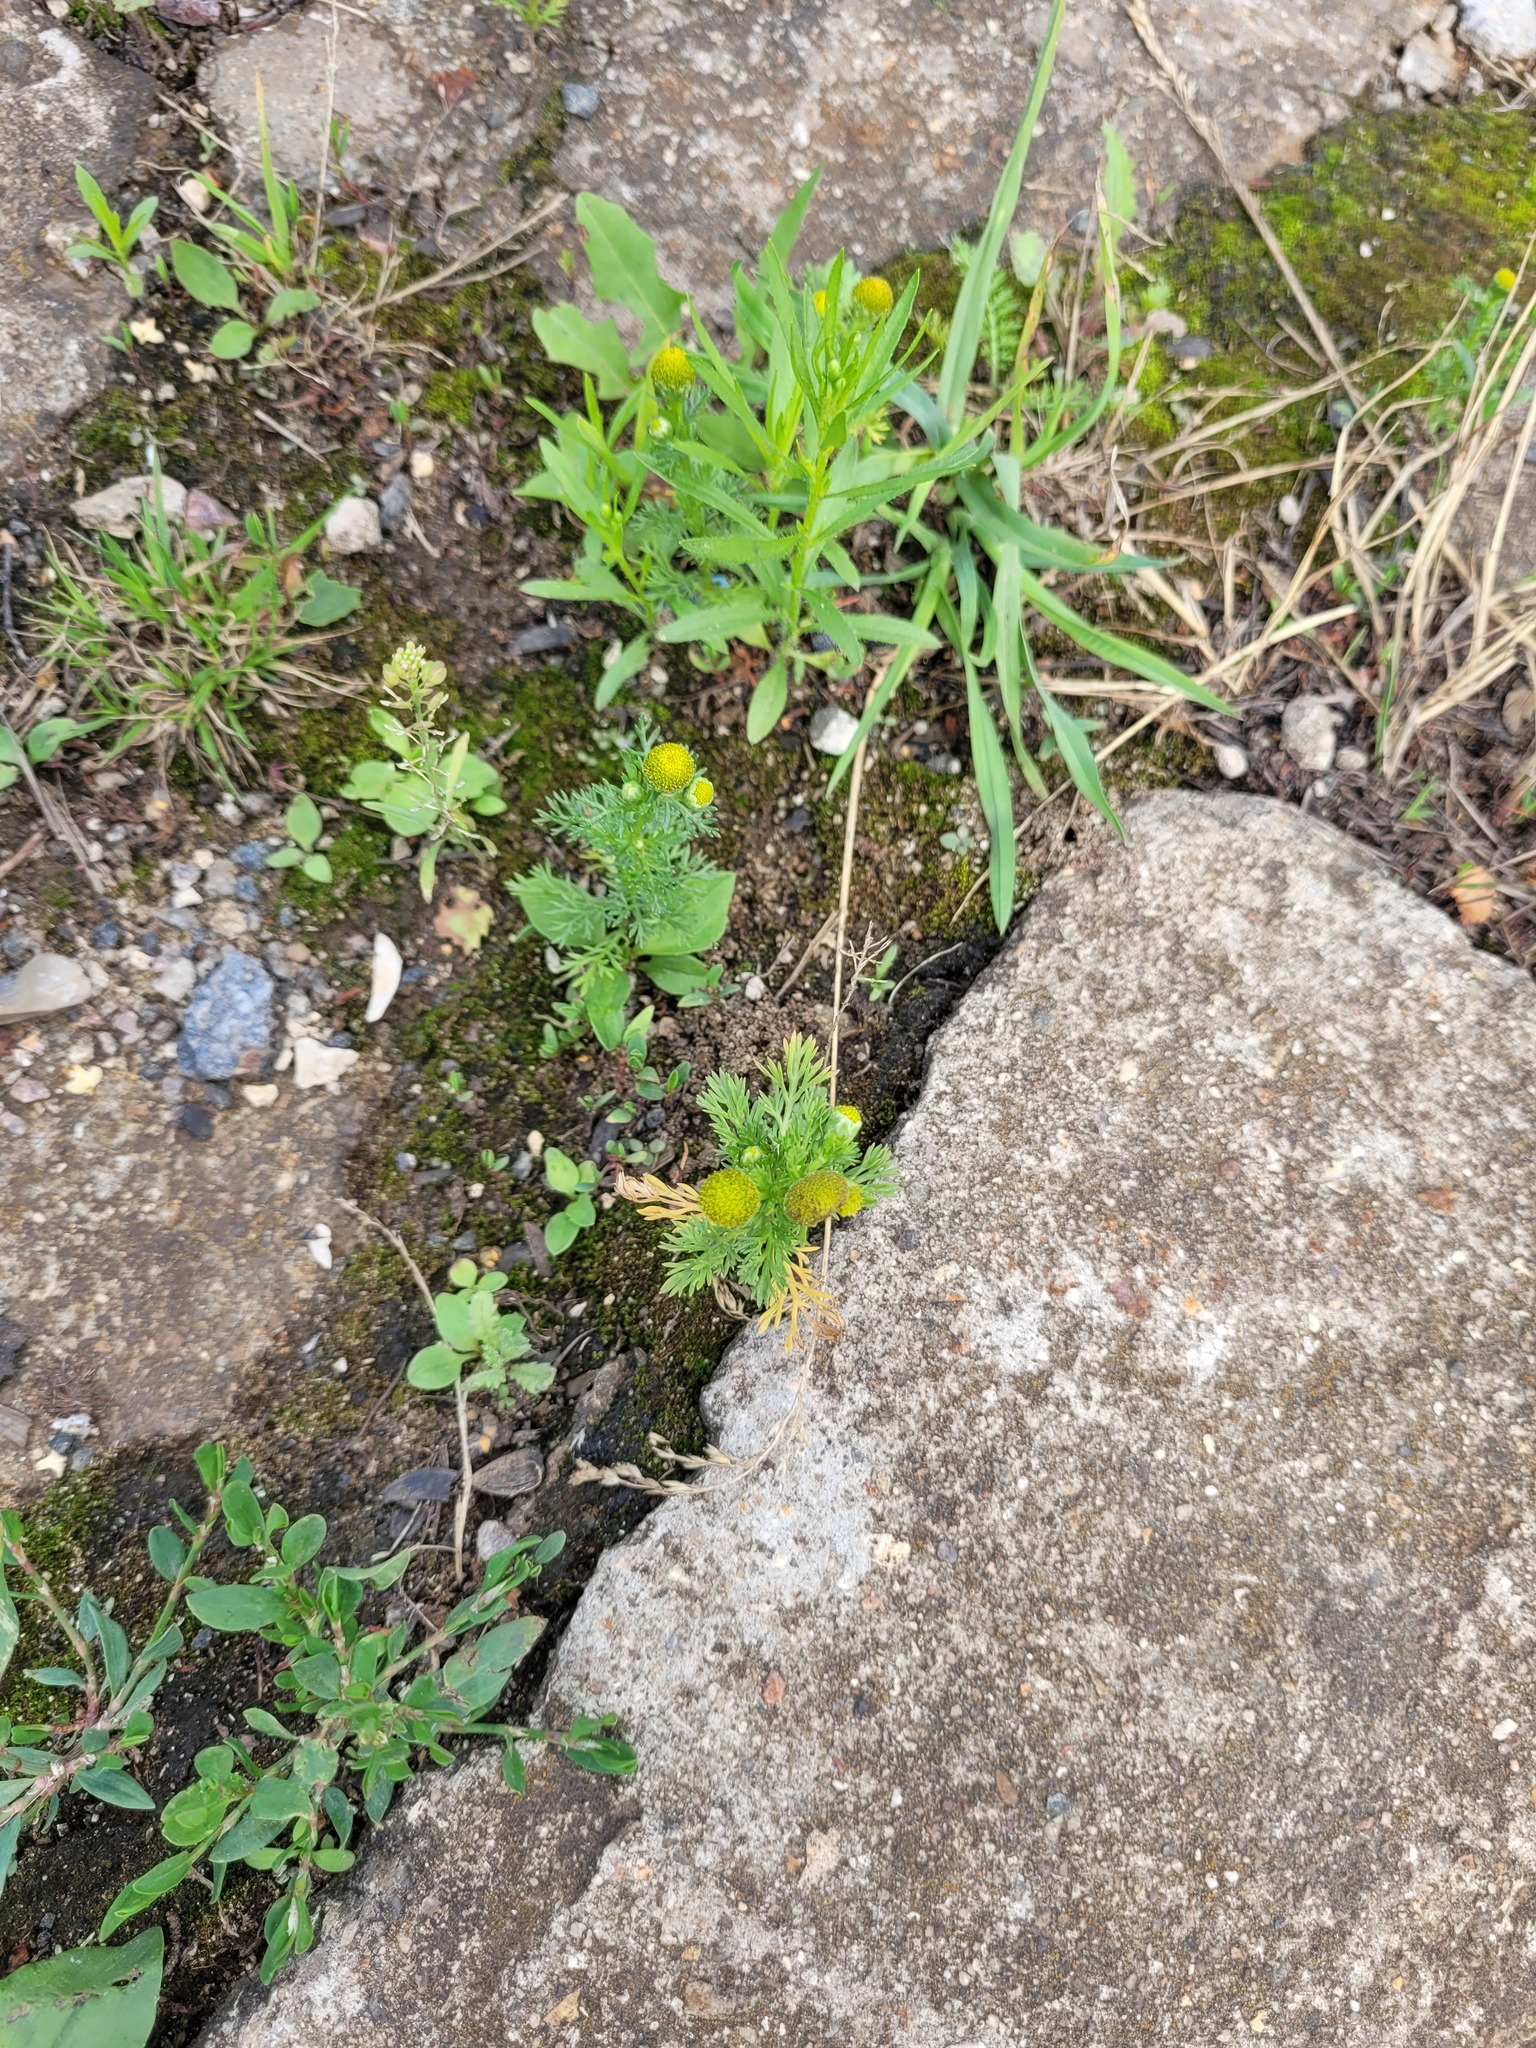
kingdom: Plantae
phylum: Tracheophyta
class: Magnoliopsida
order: Asterales
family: Asteraceae
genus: Matricaria
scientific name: Matricaria discoidea
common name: Disc mayweed
